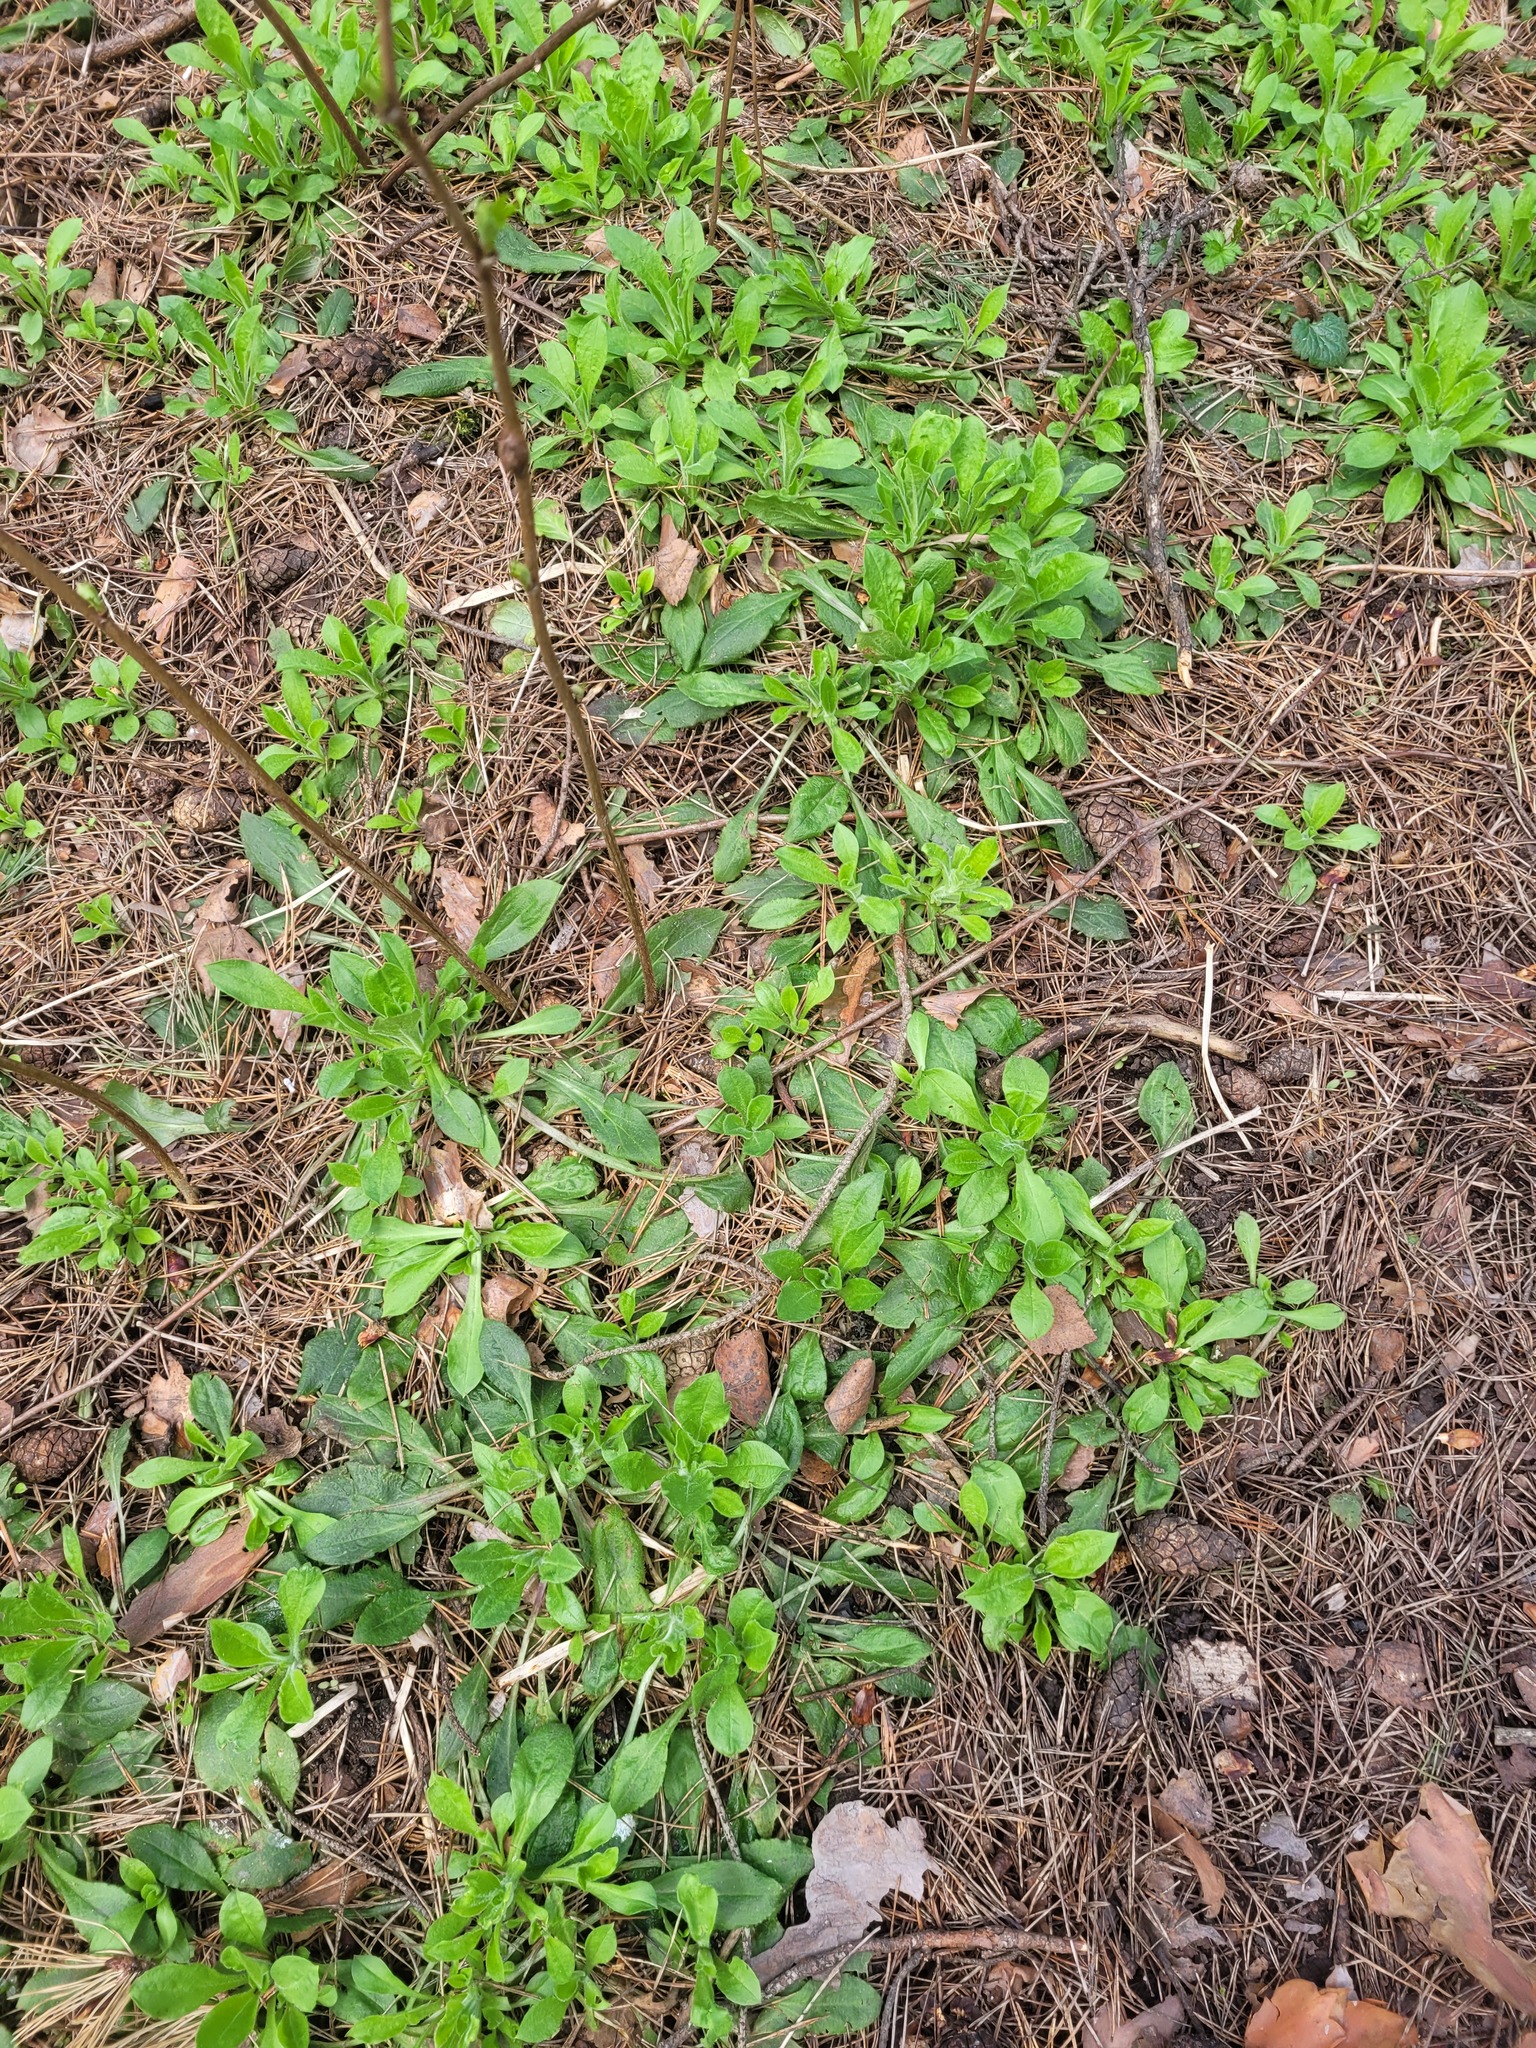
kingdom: Plantae
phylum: Tracheophyta
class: Magnoliopsida
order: Caryophyllales
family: Caryophyllaceae
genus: Silene
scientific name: Silene nutans
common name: Nottingham catchfly
